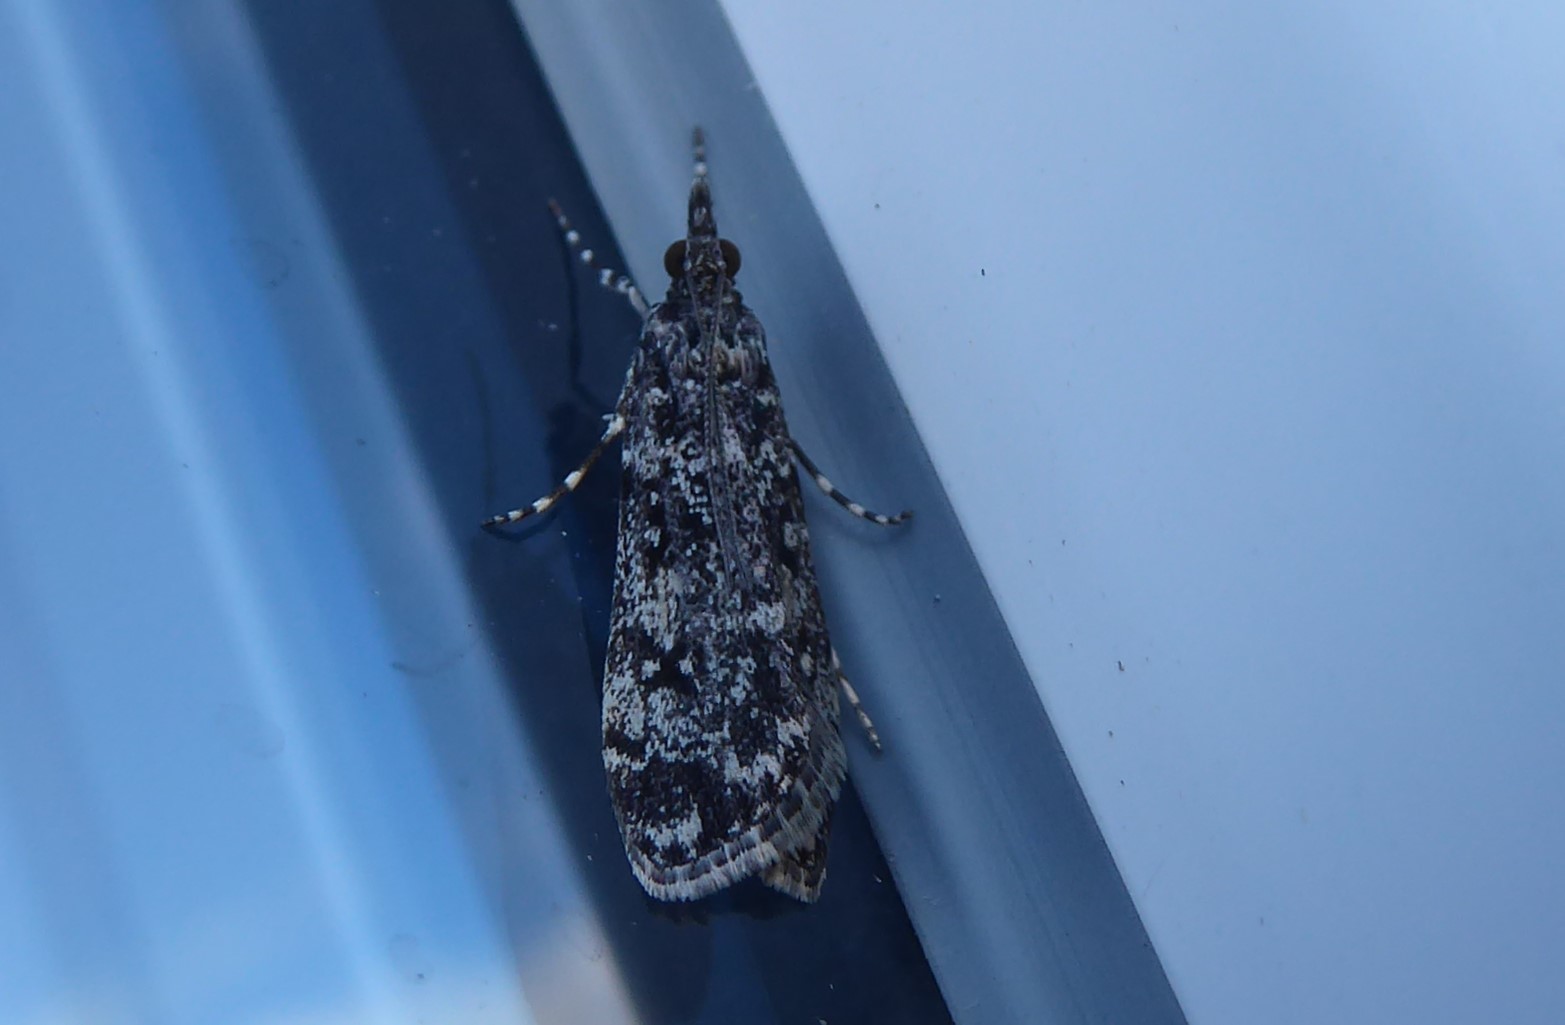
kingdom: Animalia
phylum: Arthropoda
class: Insecta
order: Lepidoptera
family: Crambidae
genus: Eudonia
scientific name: Eudonia philerga
